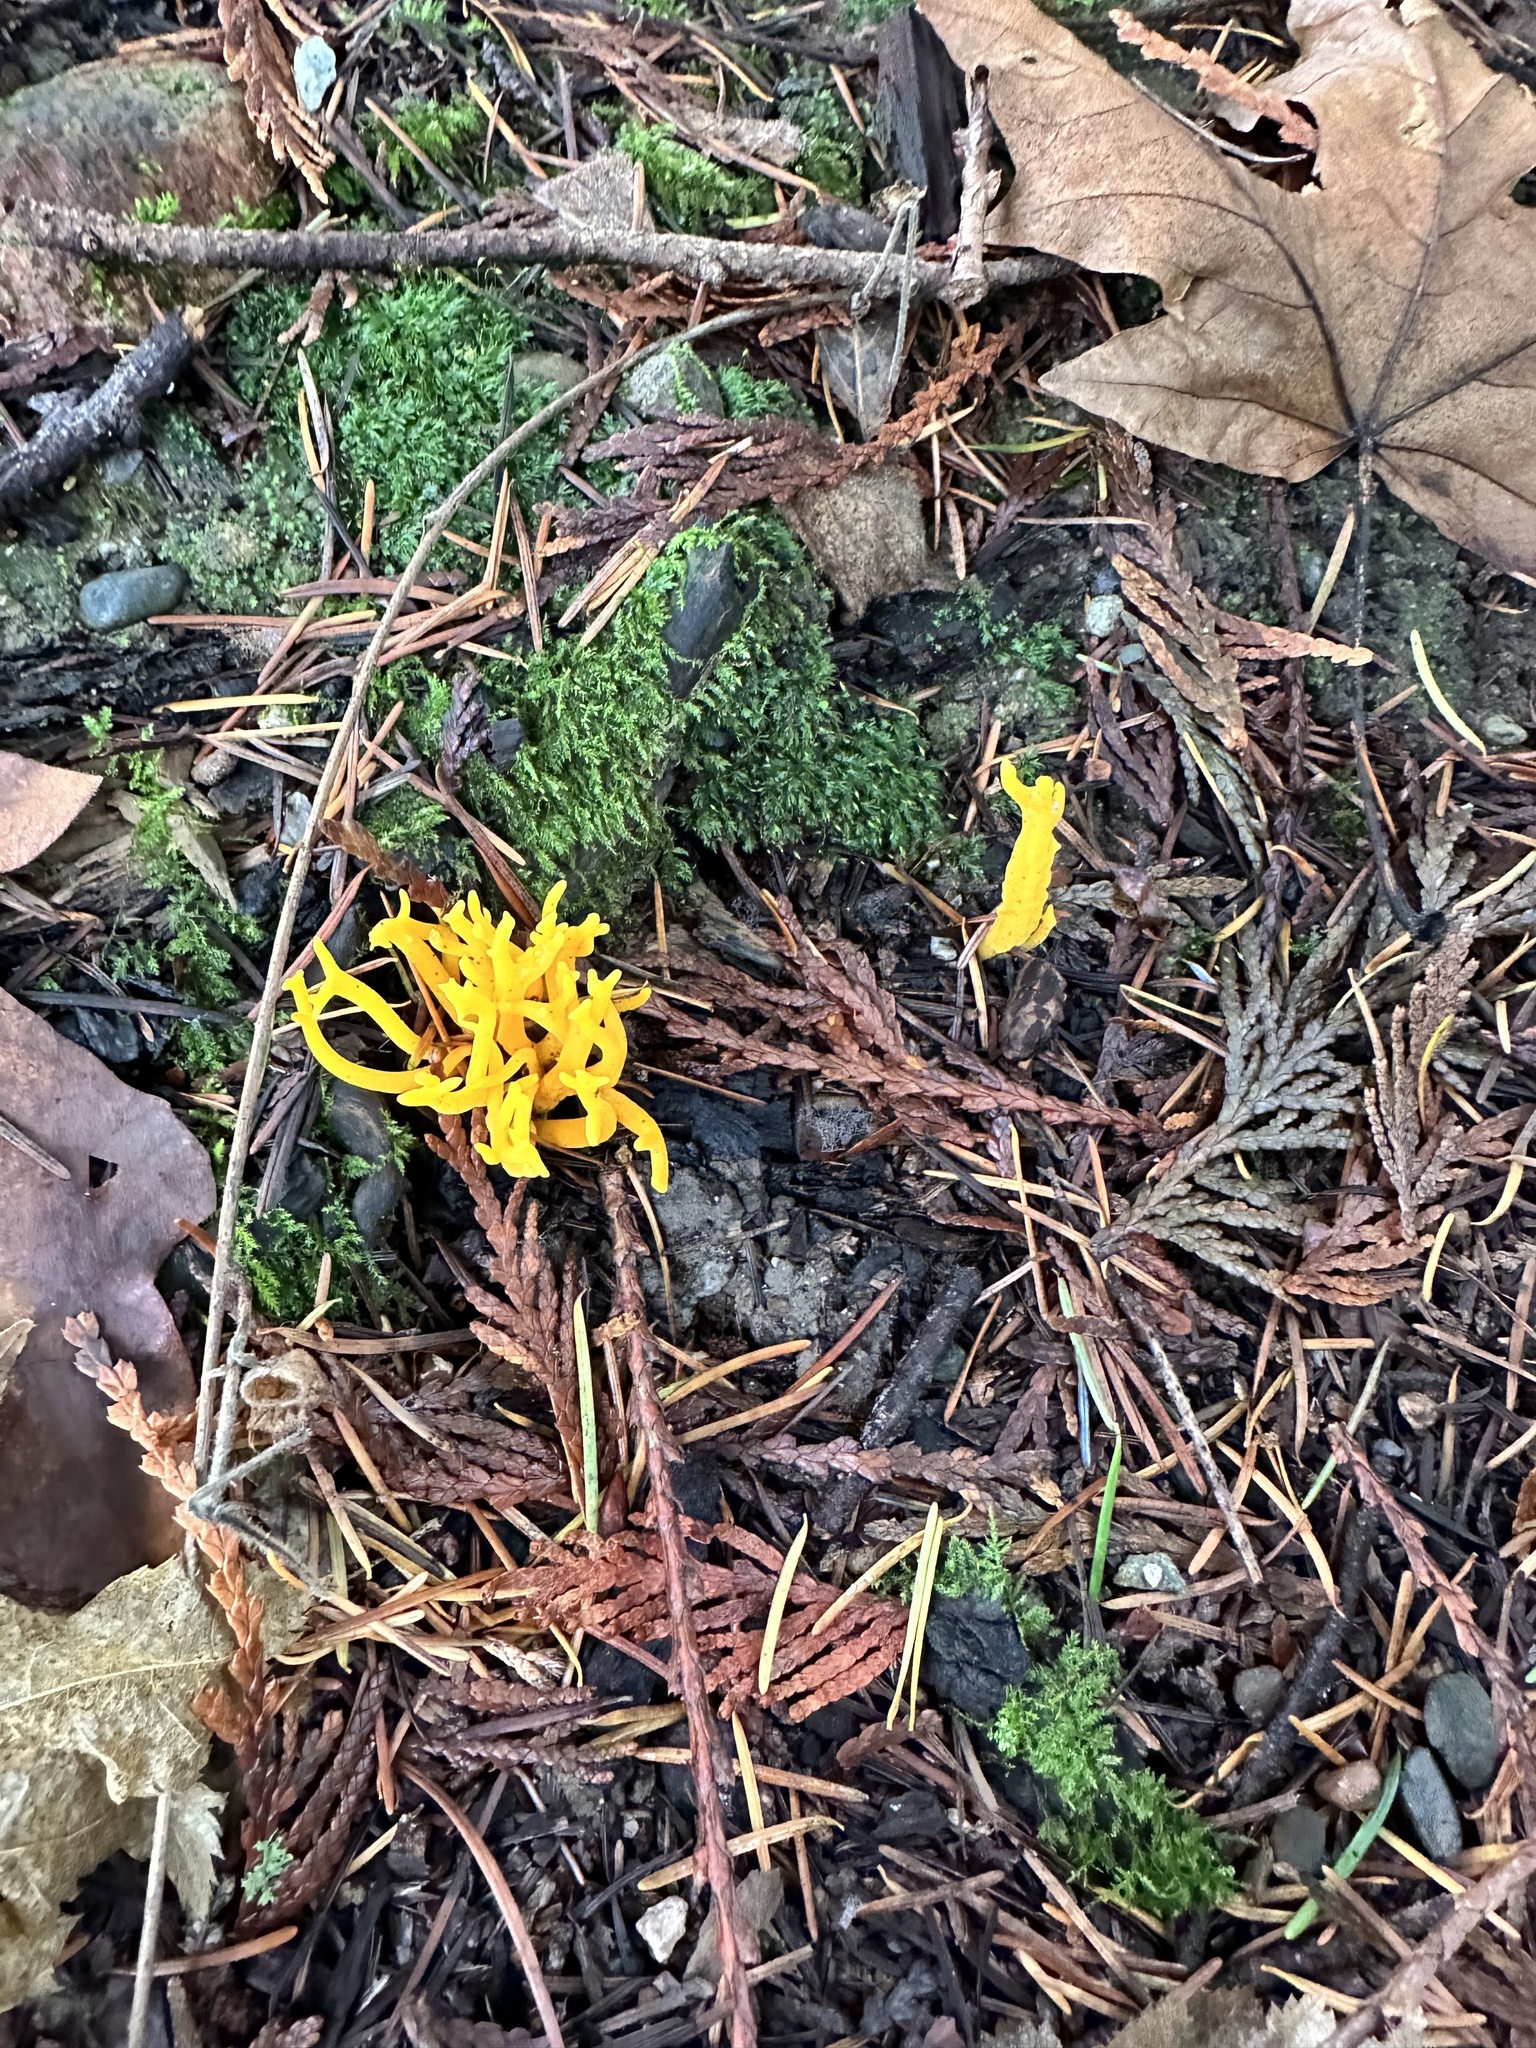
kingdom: Fungi
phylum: Basidiomycota
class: Dacrymycetes
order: Dacrymycetales
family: Dacrymycetaceae
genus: Calocera
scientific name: Calocera viscosa
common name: Yellow stagshorn
